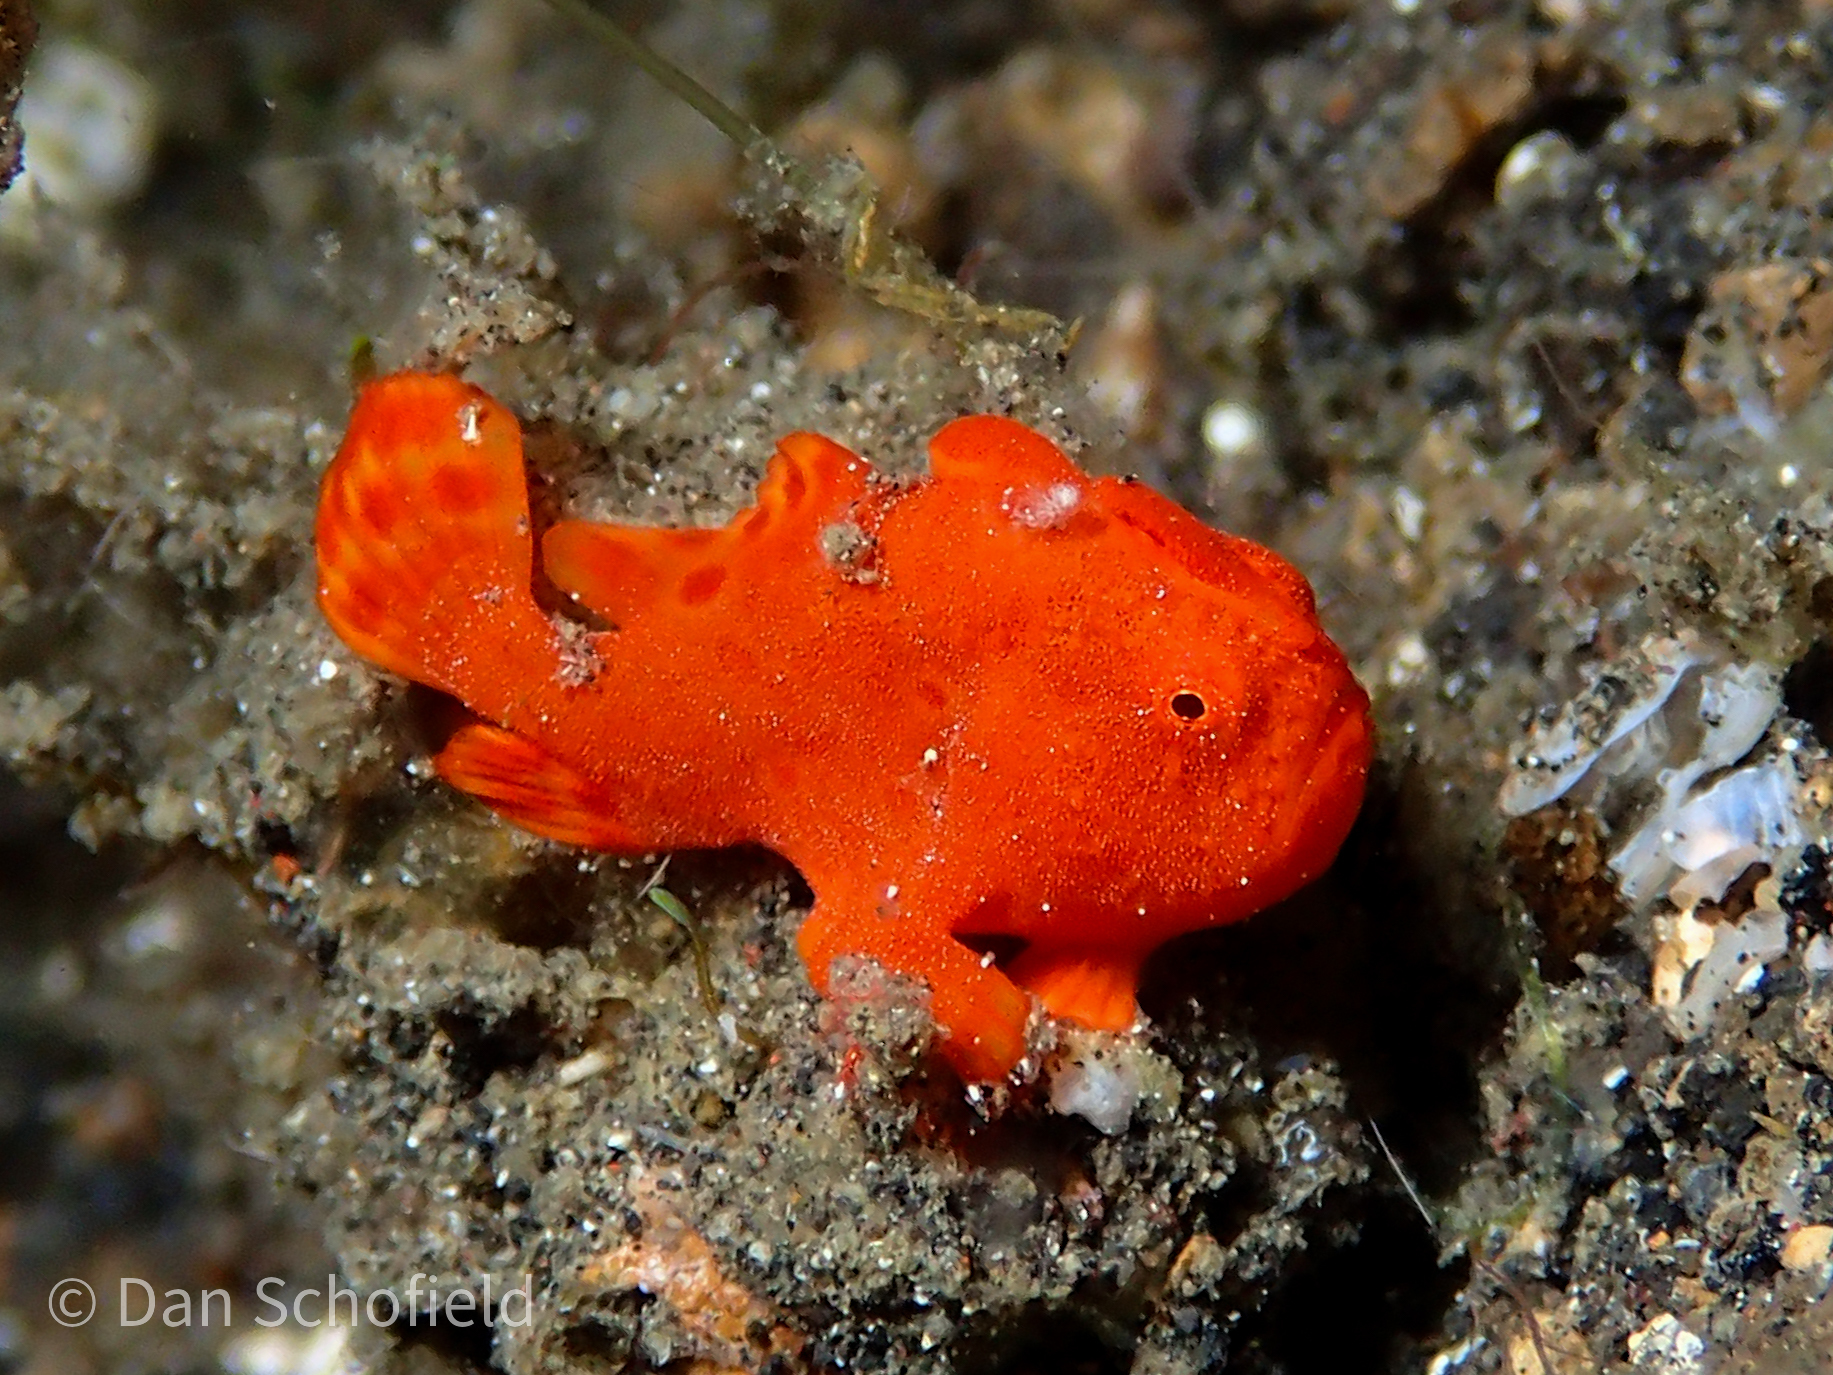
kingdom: Animalia
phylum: Chordata
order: Lophiiformes
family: Antennariidae
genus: Antennarius
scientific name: Antennarius pictus
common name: Painted frogfish
